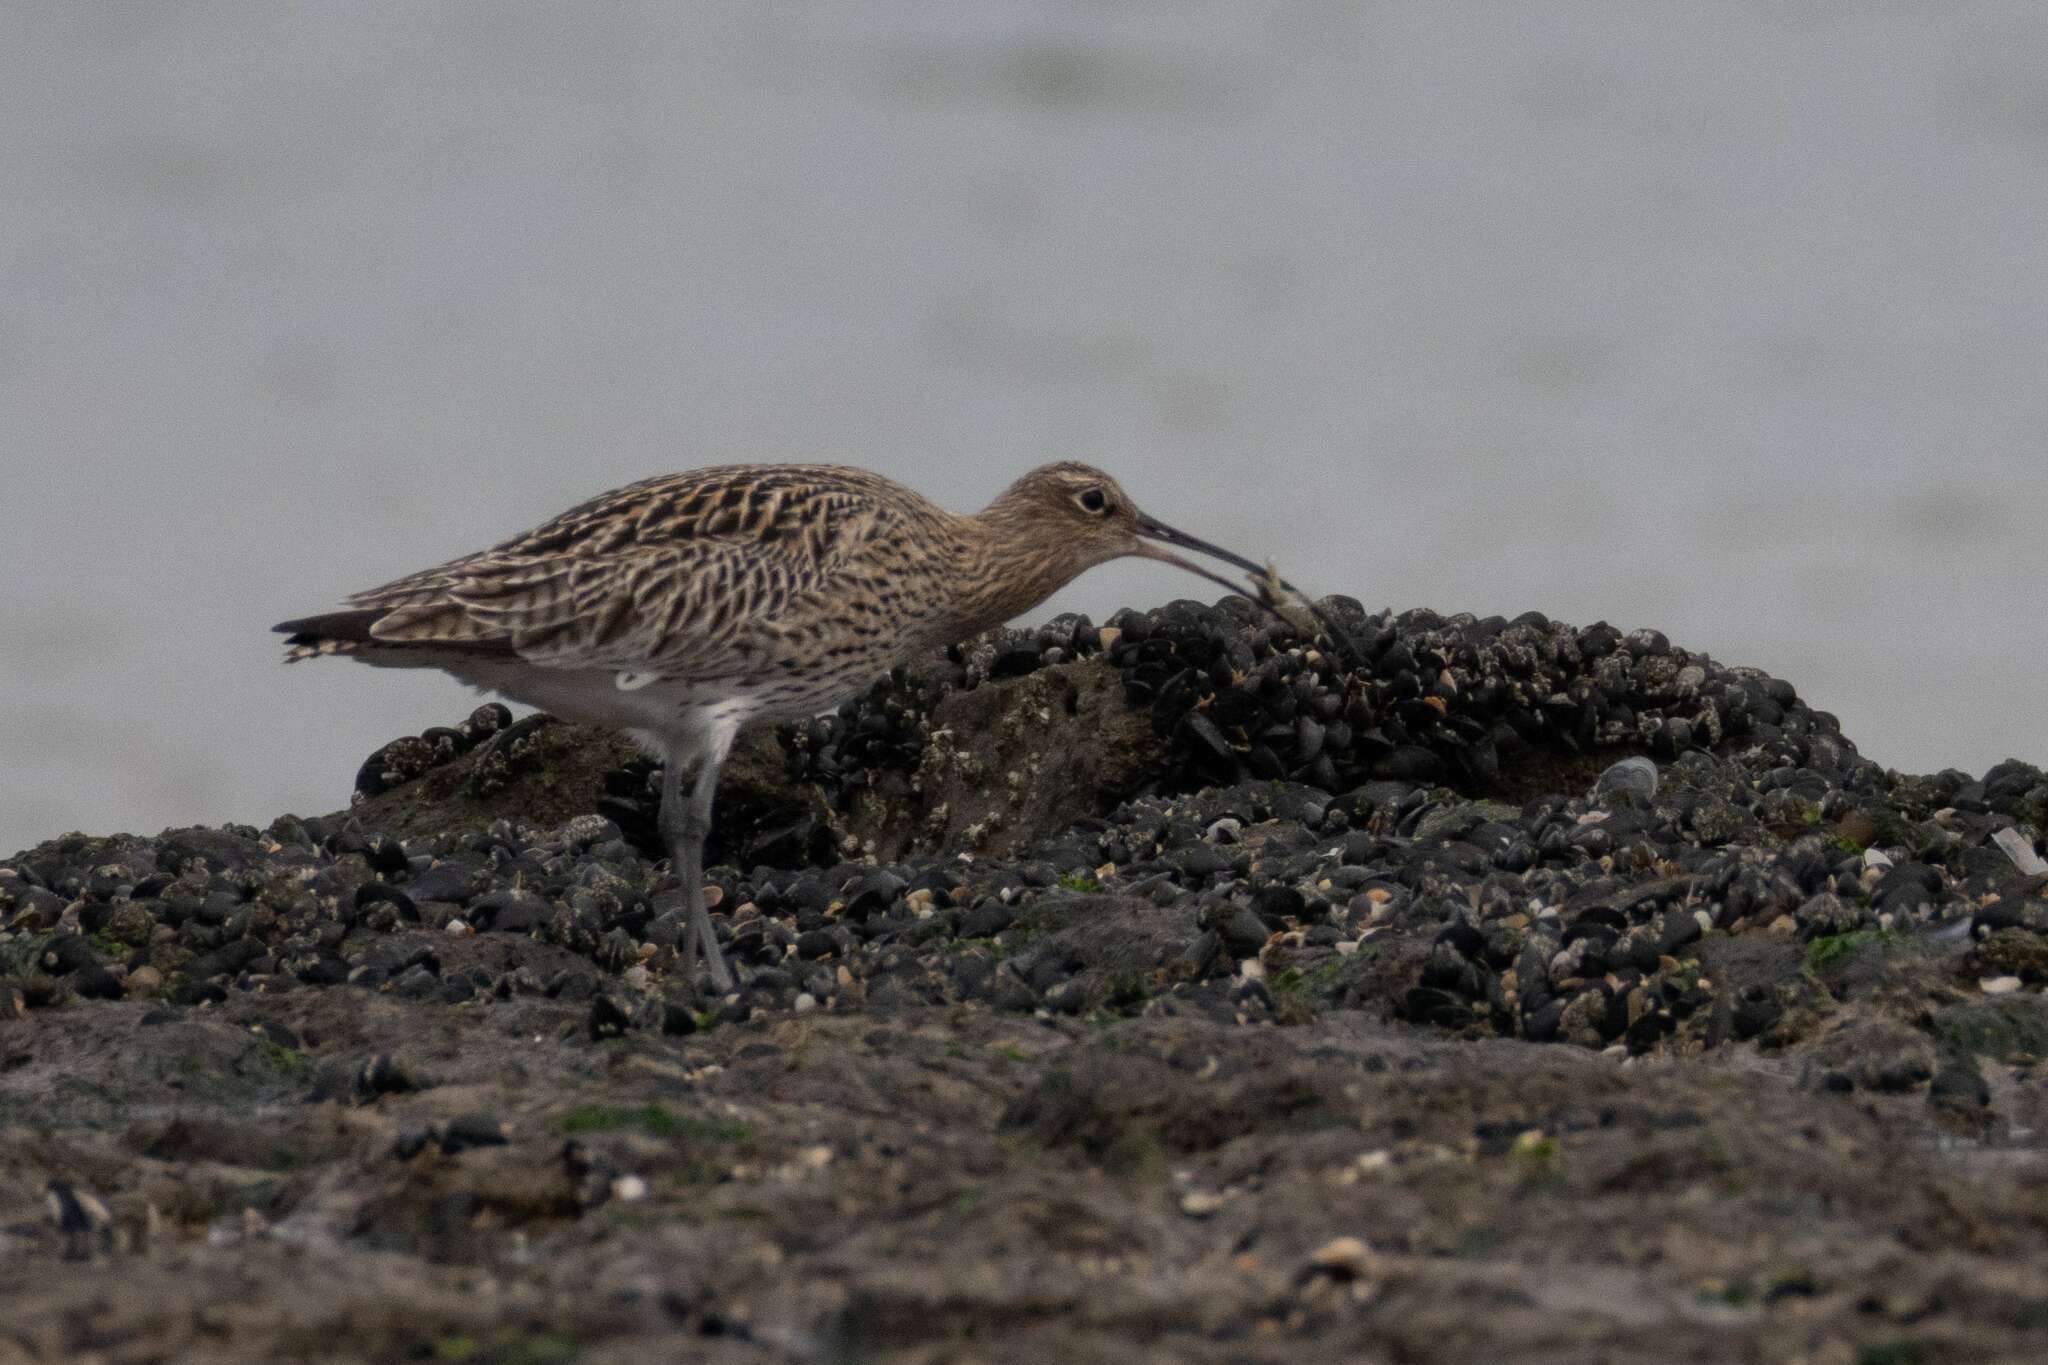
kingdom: Animalia
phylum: Chordata
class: Aves
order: Charadriiformes
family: Scolopacidae
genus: Numenius
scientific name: Numenius arquata
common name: Eurasian curlew
